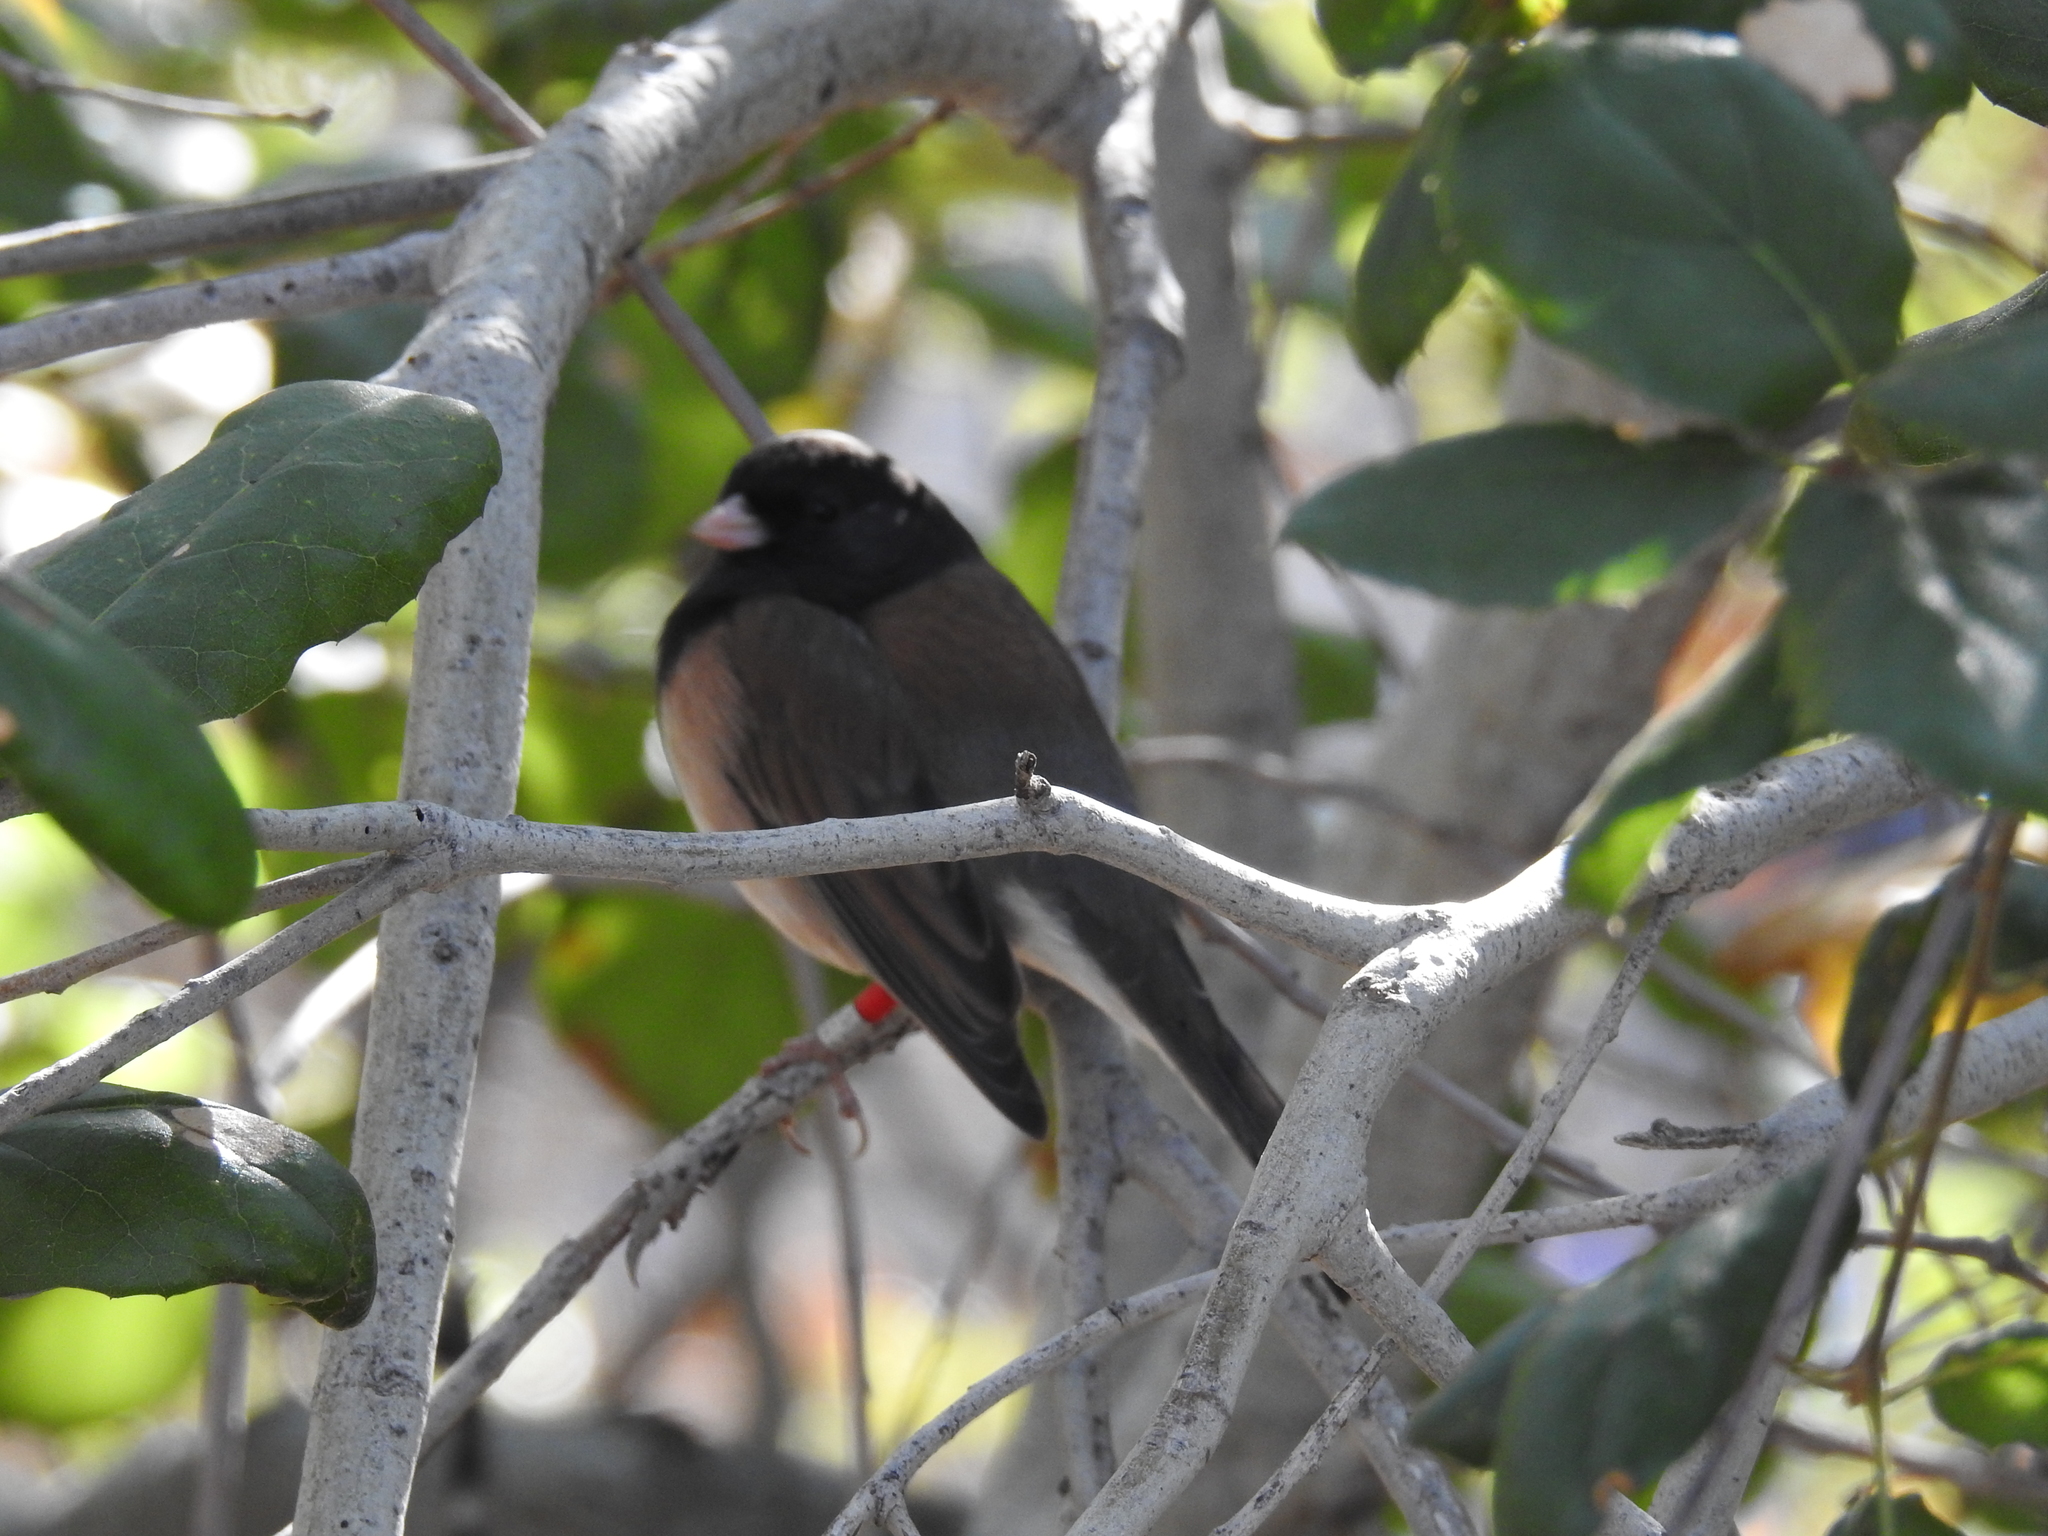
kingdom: Animalia
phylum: Chordata
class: Aves
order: Passeriformes
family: Passerellidae
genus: Junco
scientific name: Junco hyemalis
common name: Dark-eyed junco
